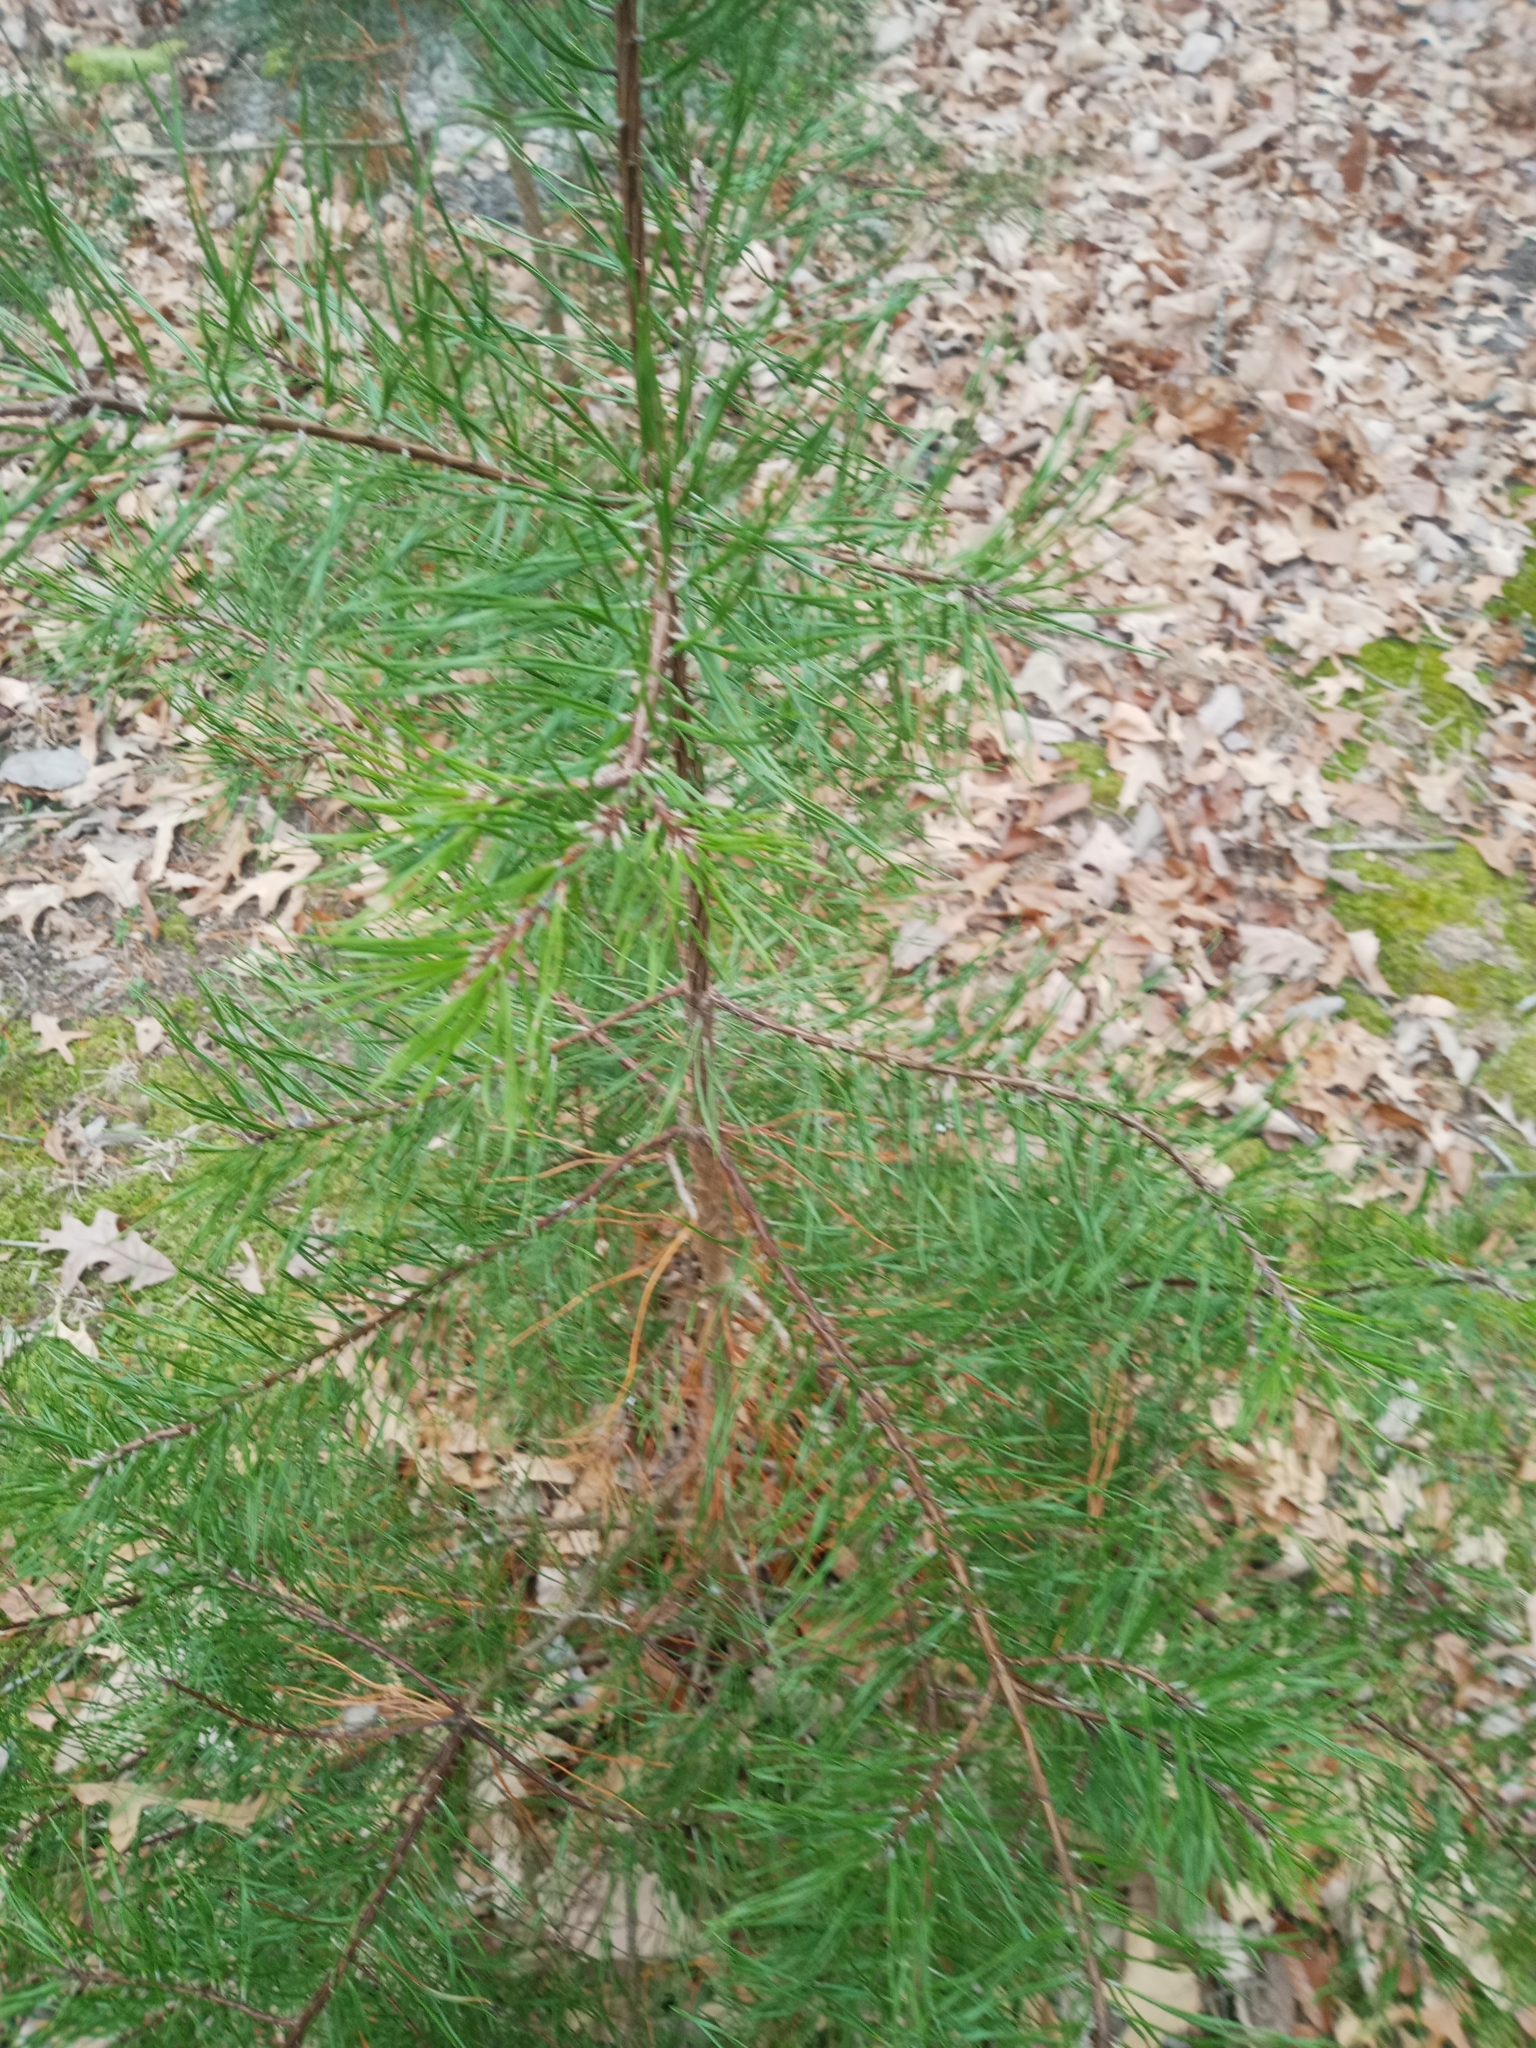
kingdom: Plantae
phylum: Tracheophyta
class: Pinopsida
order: Pinales
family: Pinaceae
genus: Pinus
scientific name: Pinus virginiana
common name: Scrub pine
